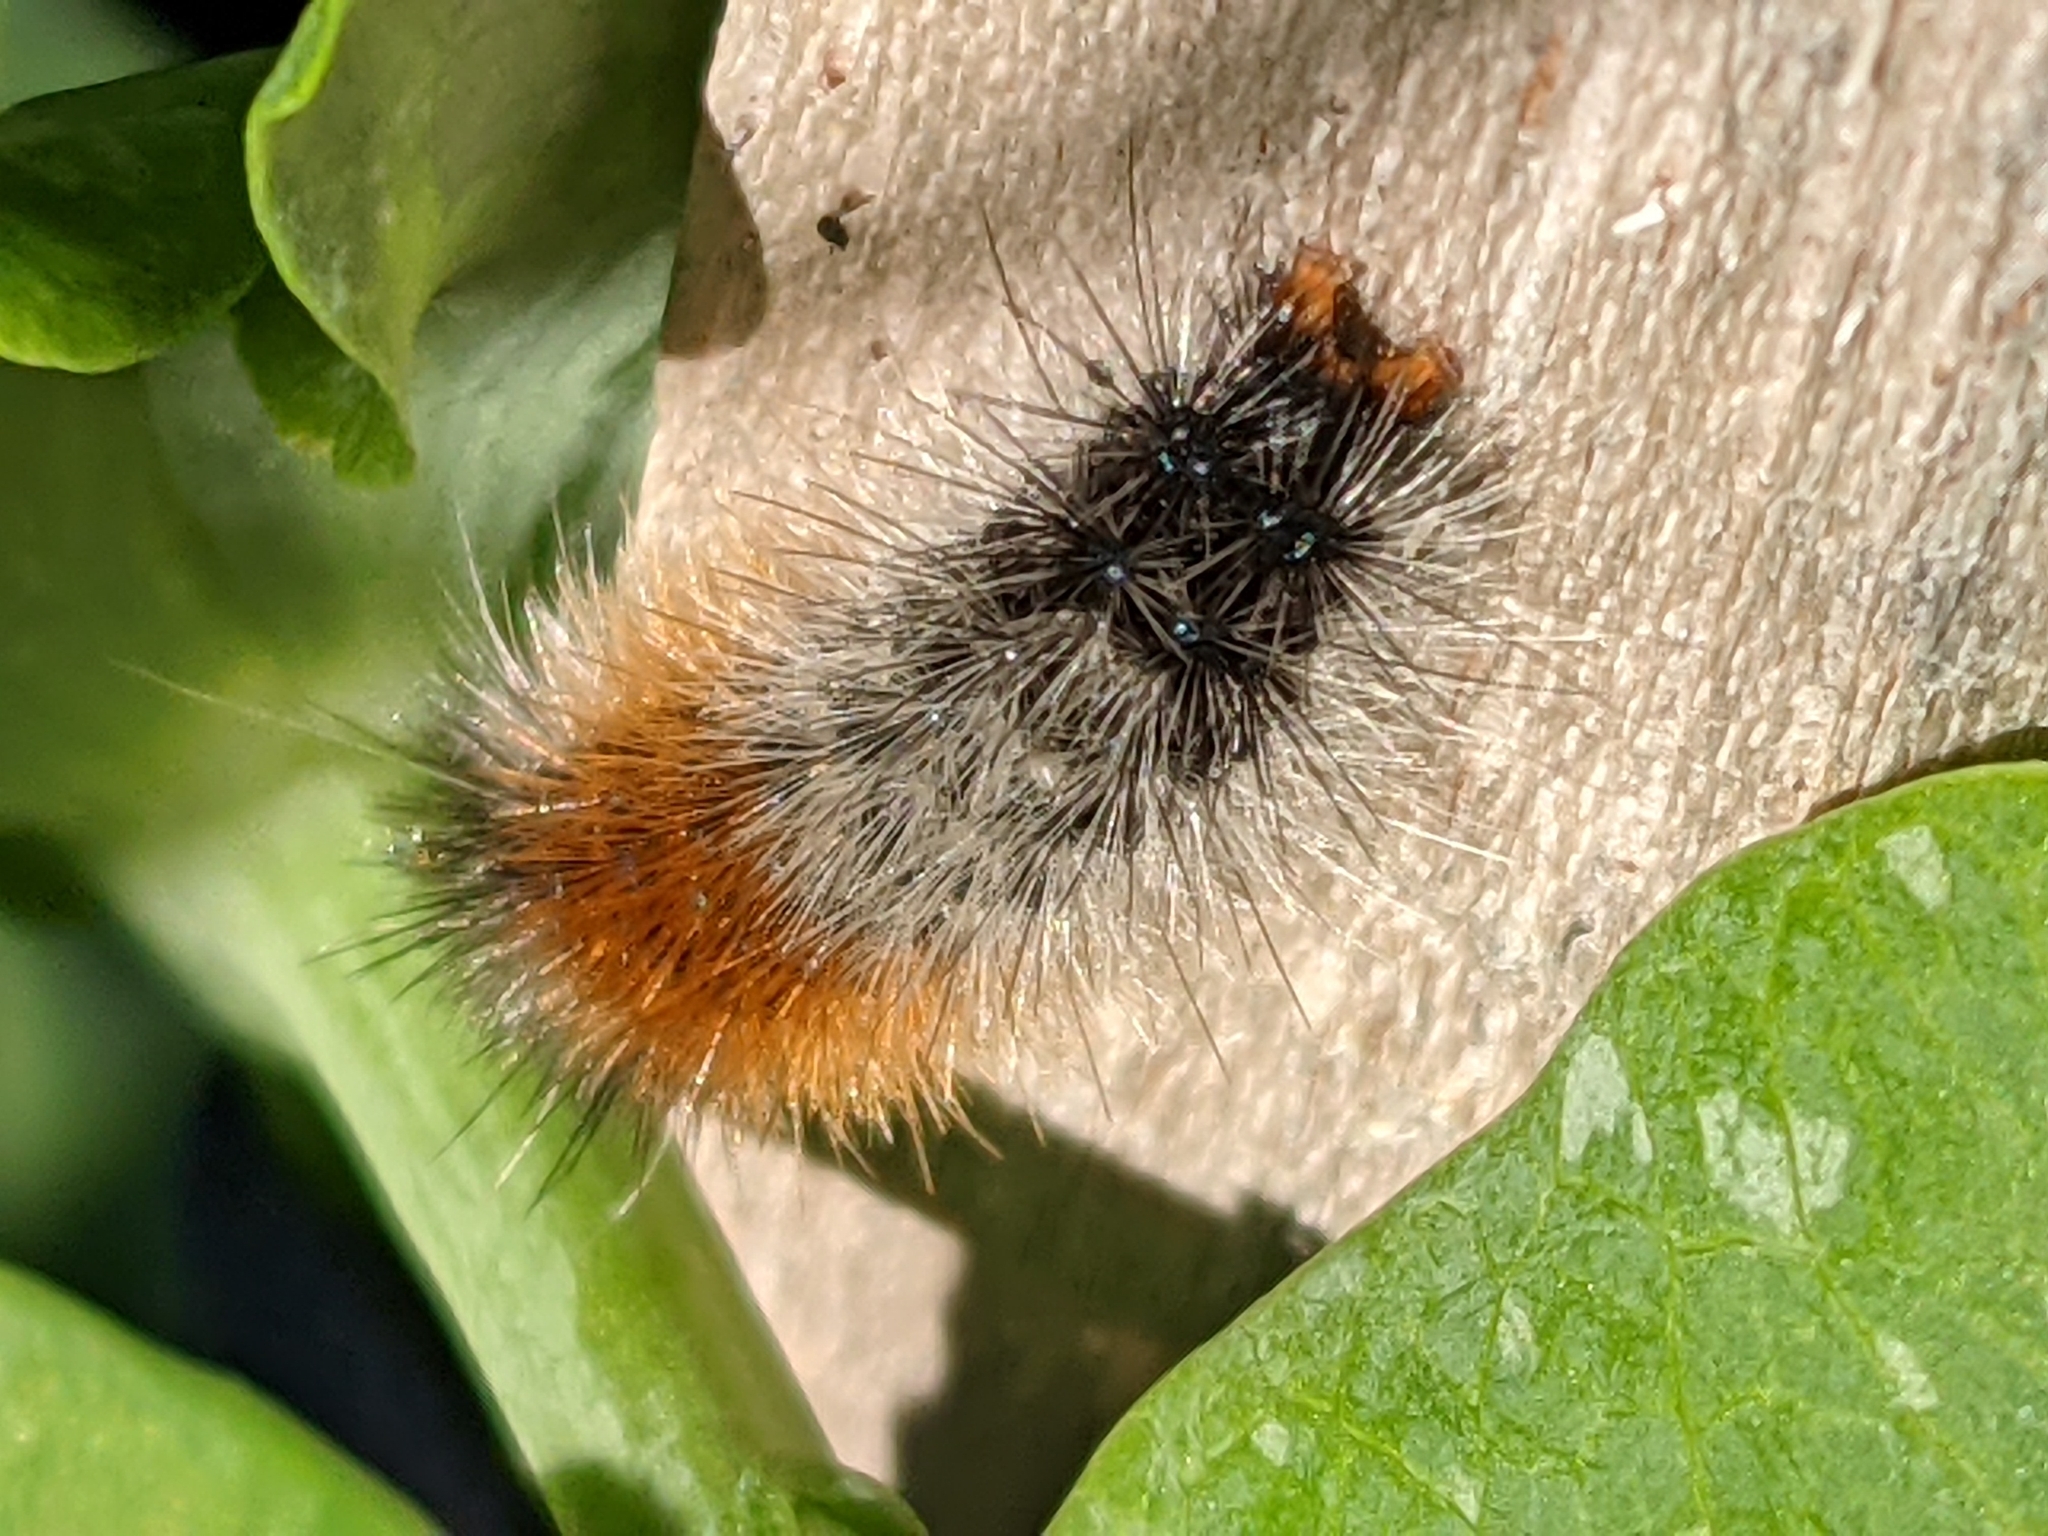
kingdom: Animalia
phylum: Arthropoda
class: Insecta
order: Lepidoptera
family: Erebidae
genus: Ardices
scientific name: Ardices glatignyi
